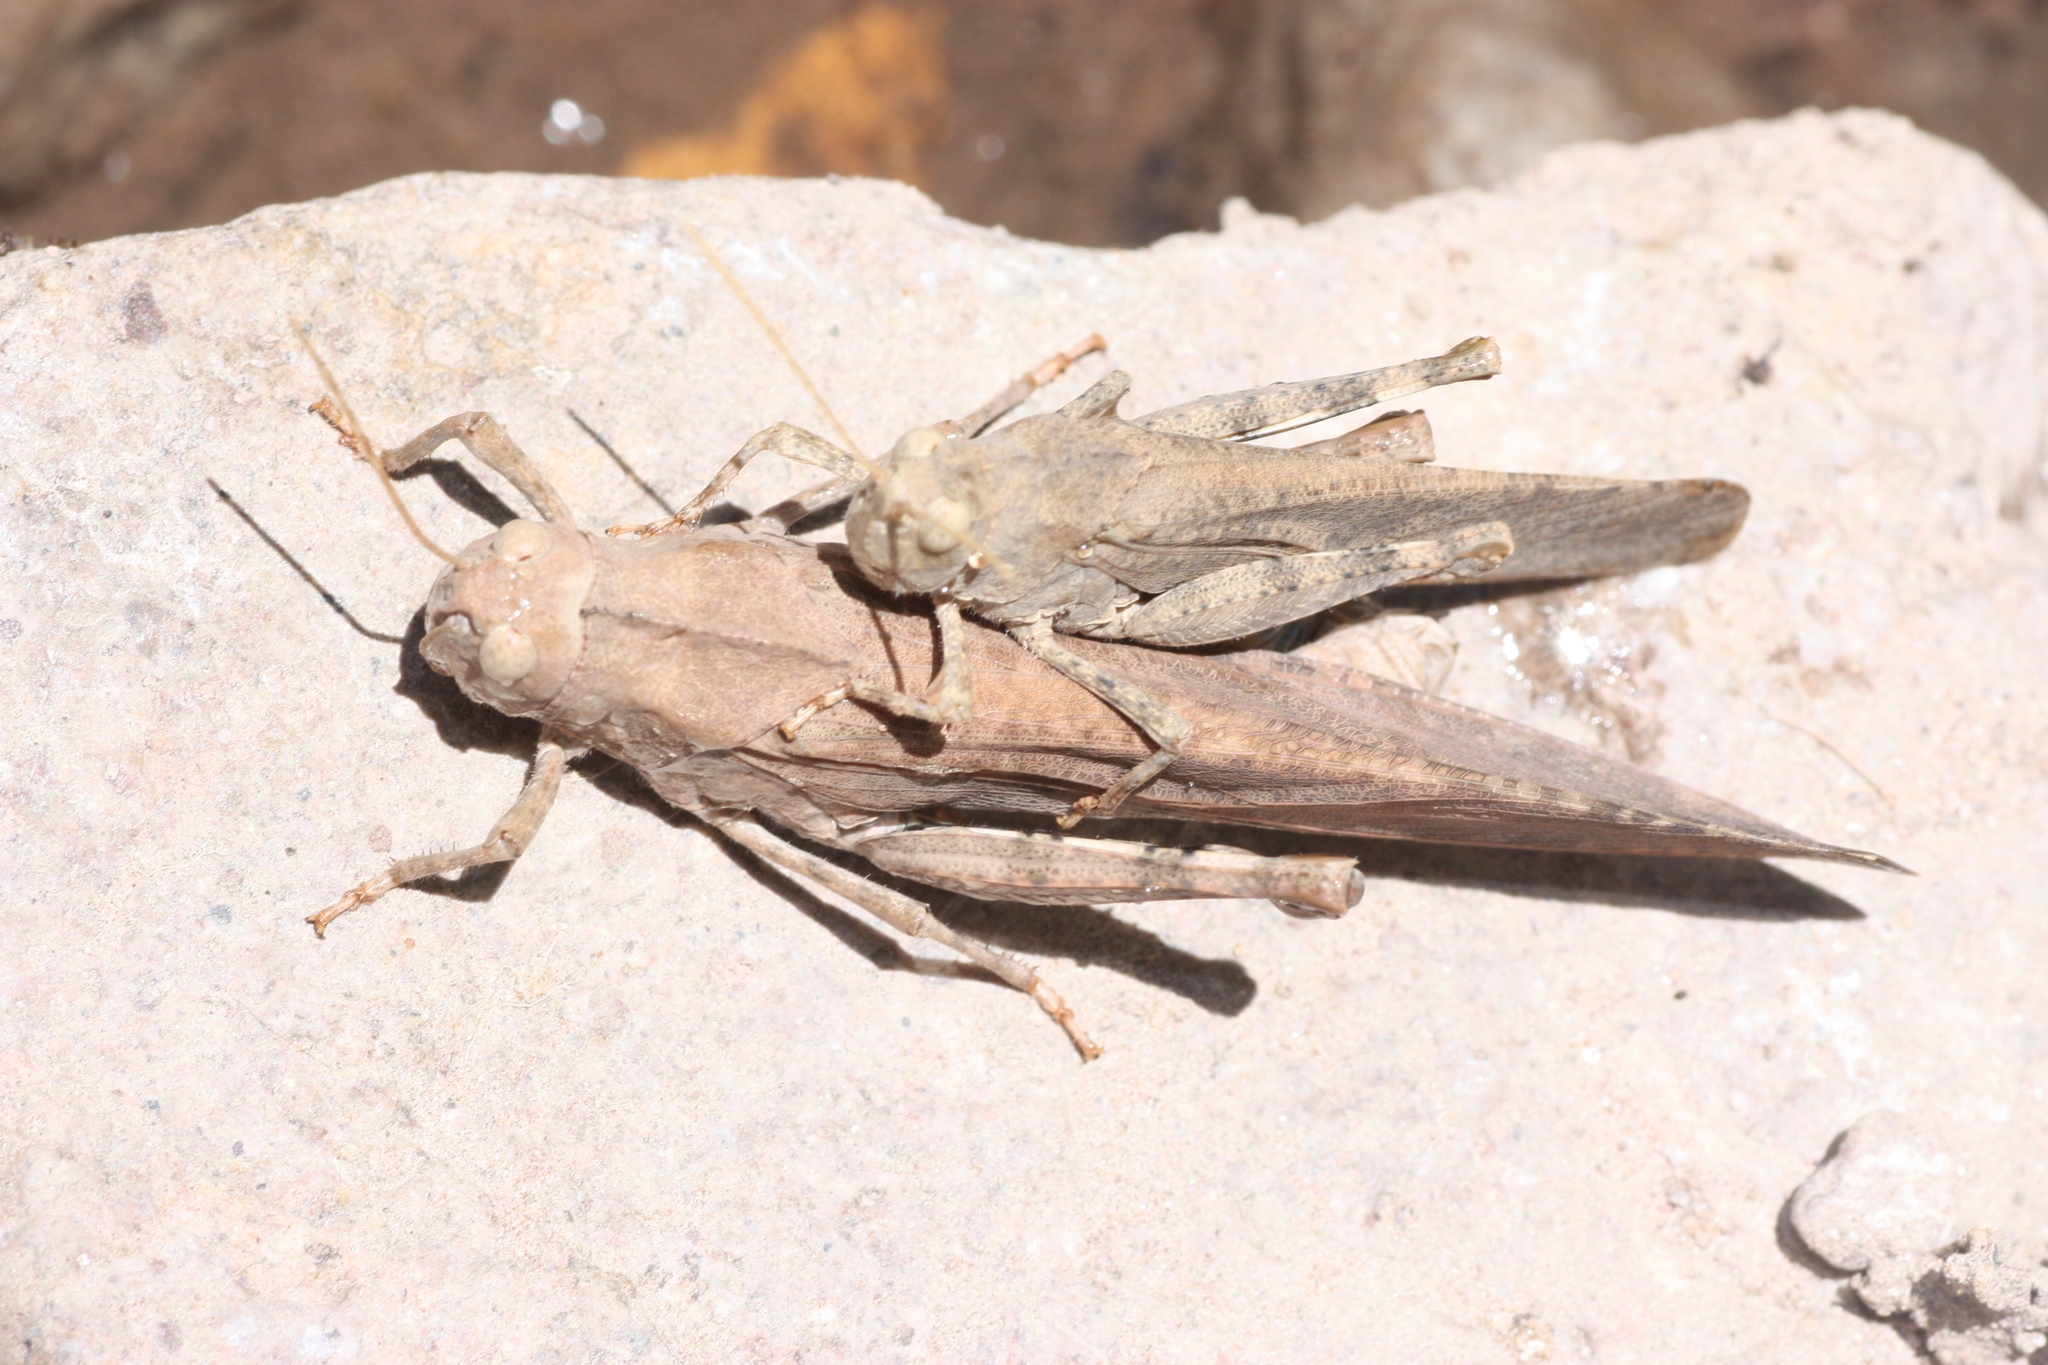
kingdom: Animalia
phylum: Arthropoda
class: Insecta
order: Orthoptera
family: Acrididae
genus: Dissosteira
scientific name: Dissosteira carolina
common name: Carolina grasshopper
